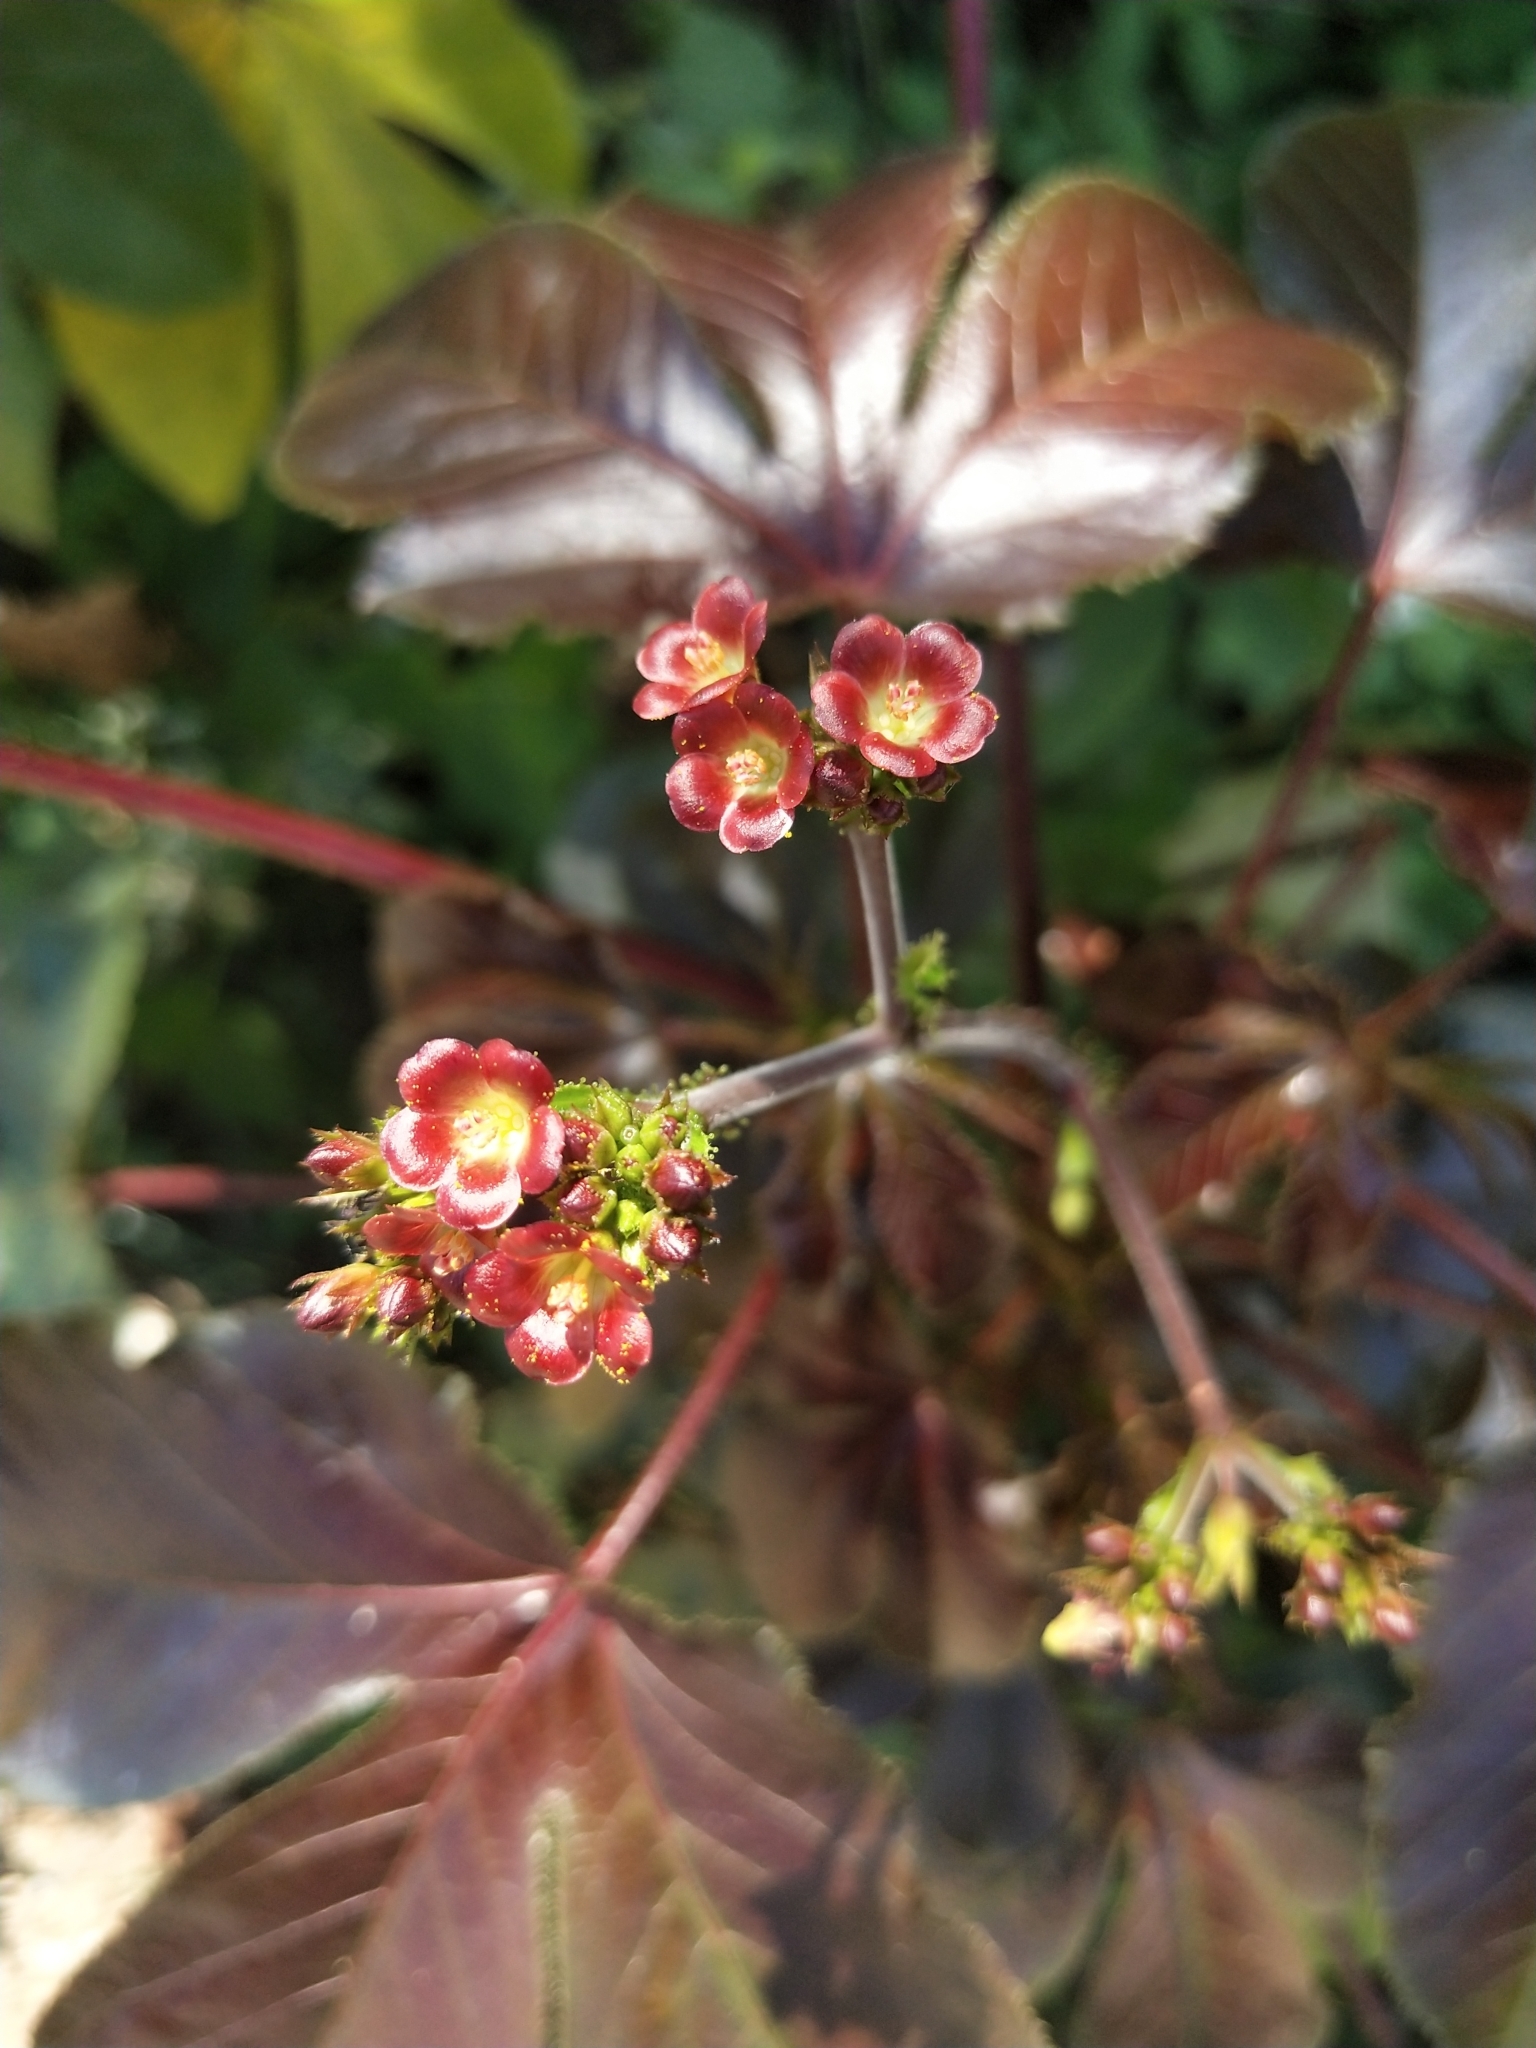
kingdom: Plantae
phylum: Tracheophyta
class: Magnoliopsida
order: Malpighiales
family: Euphorbiaceae
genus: Jatropha
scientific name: Jatropha gossypiifolia
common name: Bellyache bush
